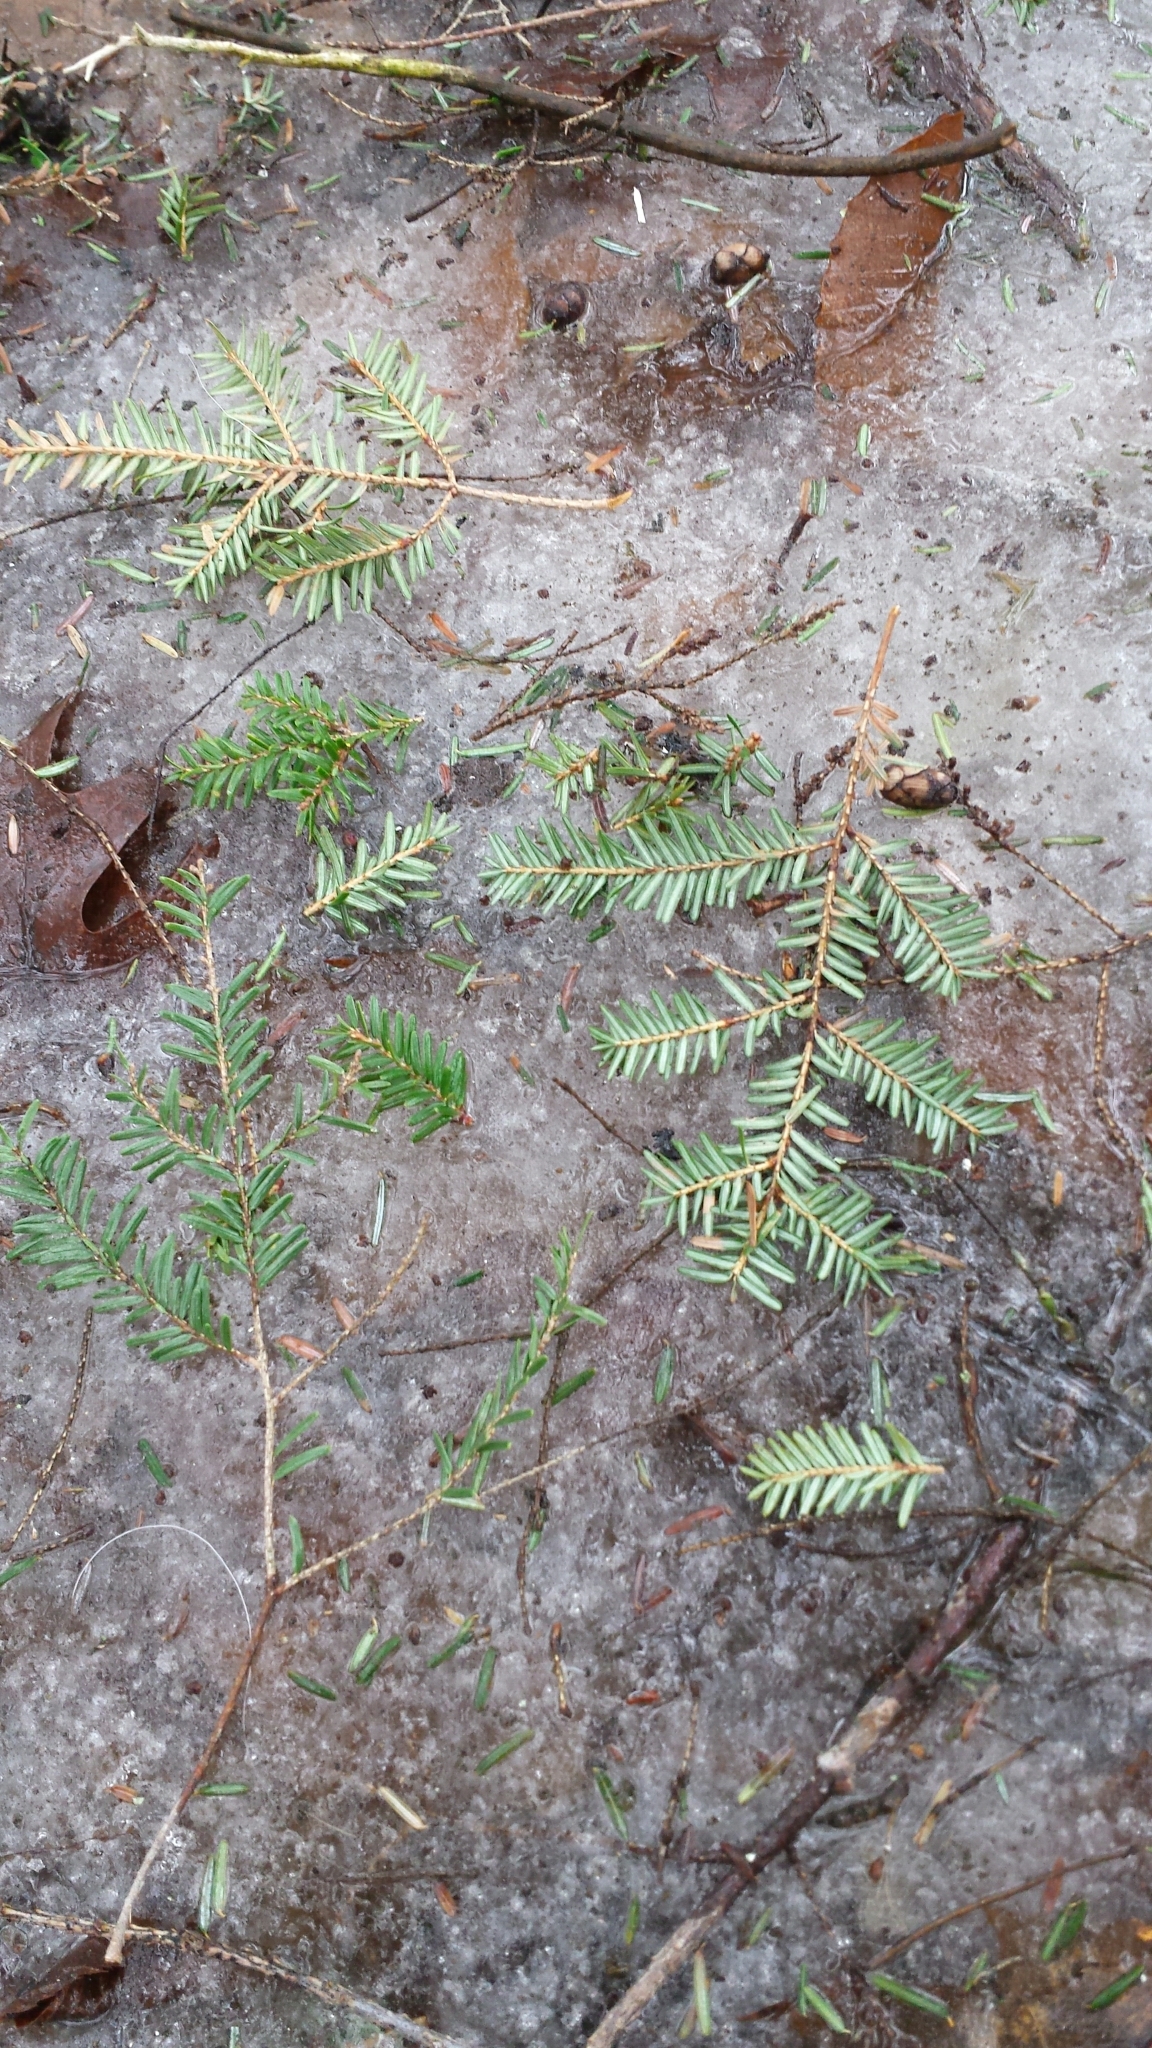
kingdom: Plantae
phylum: Tracheophyta
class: Pinopsida
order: Pinales
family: Pinaceae
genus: Tsuga
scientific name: Tsuga canadensis
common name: Eastern hemlock
